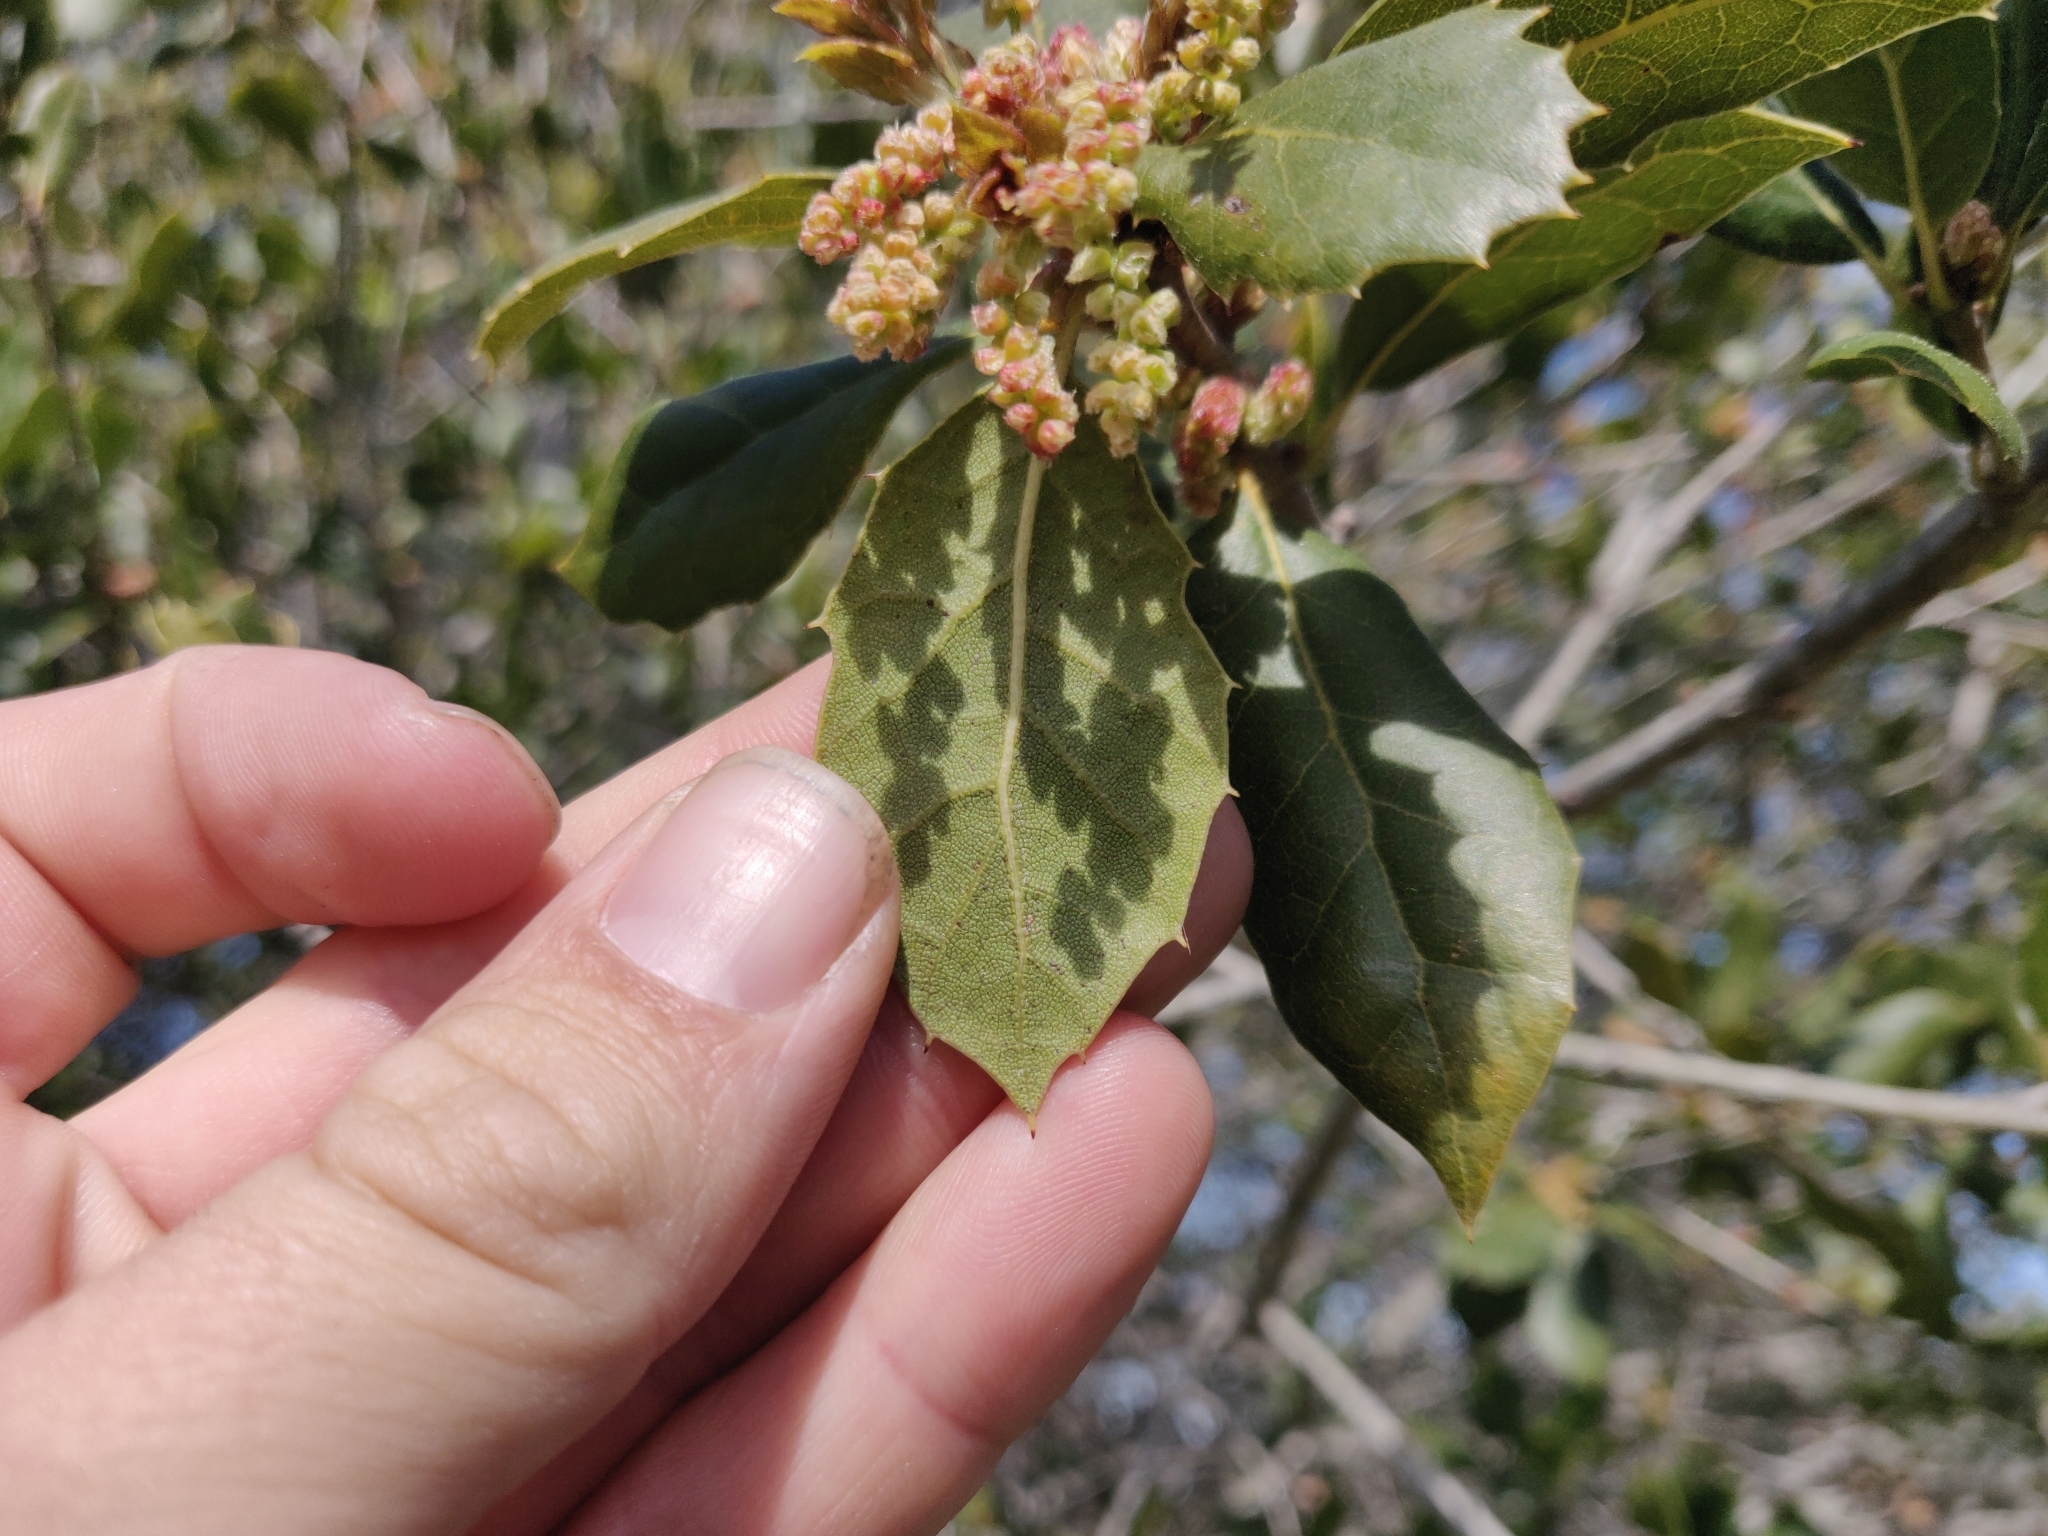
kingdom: Plantae
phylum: Tracheophyta
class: Magnoliopsida
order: Fagales
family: Fagaceae
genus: Quercus
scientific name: Quercus agrifolia
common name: California live oak
